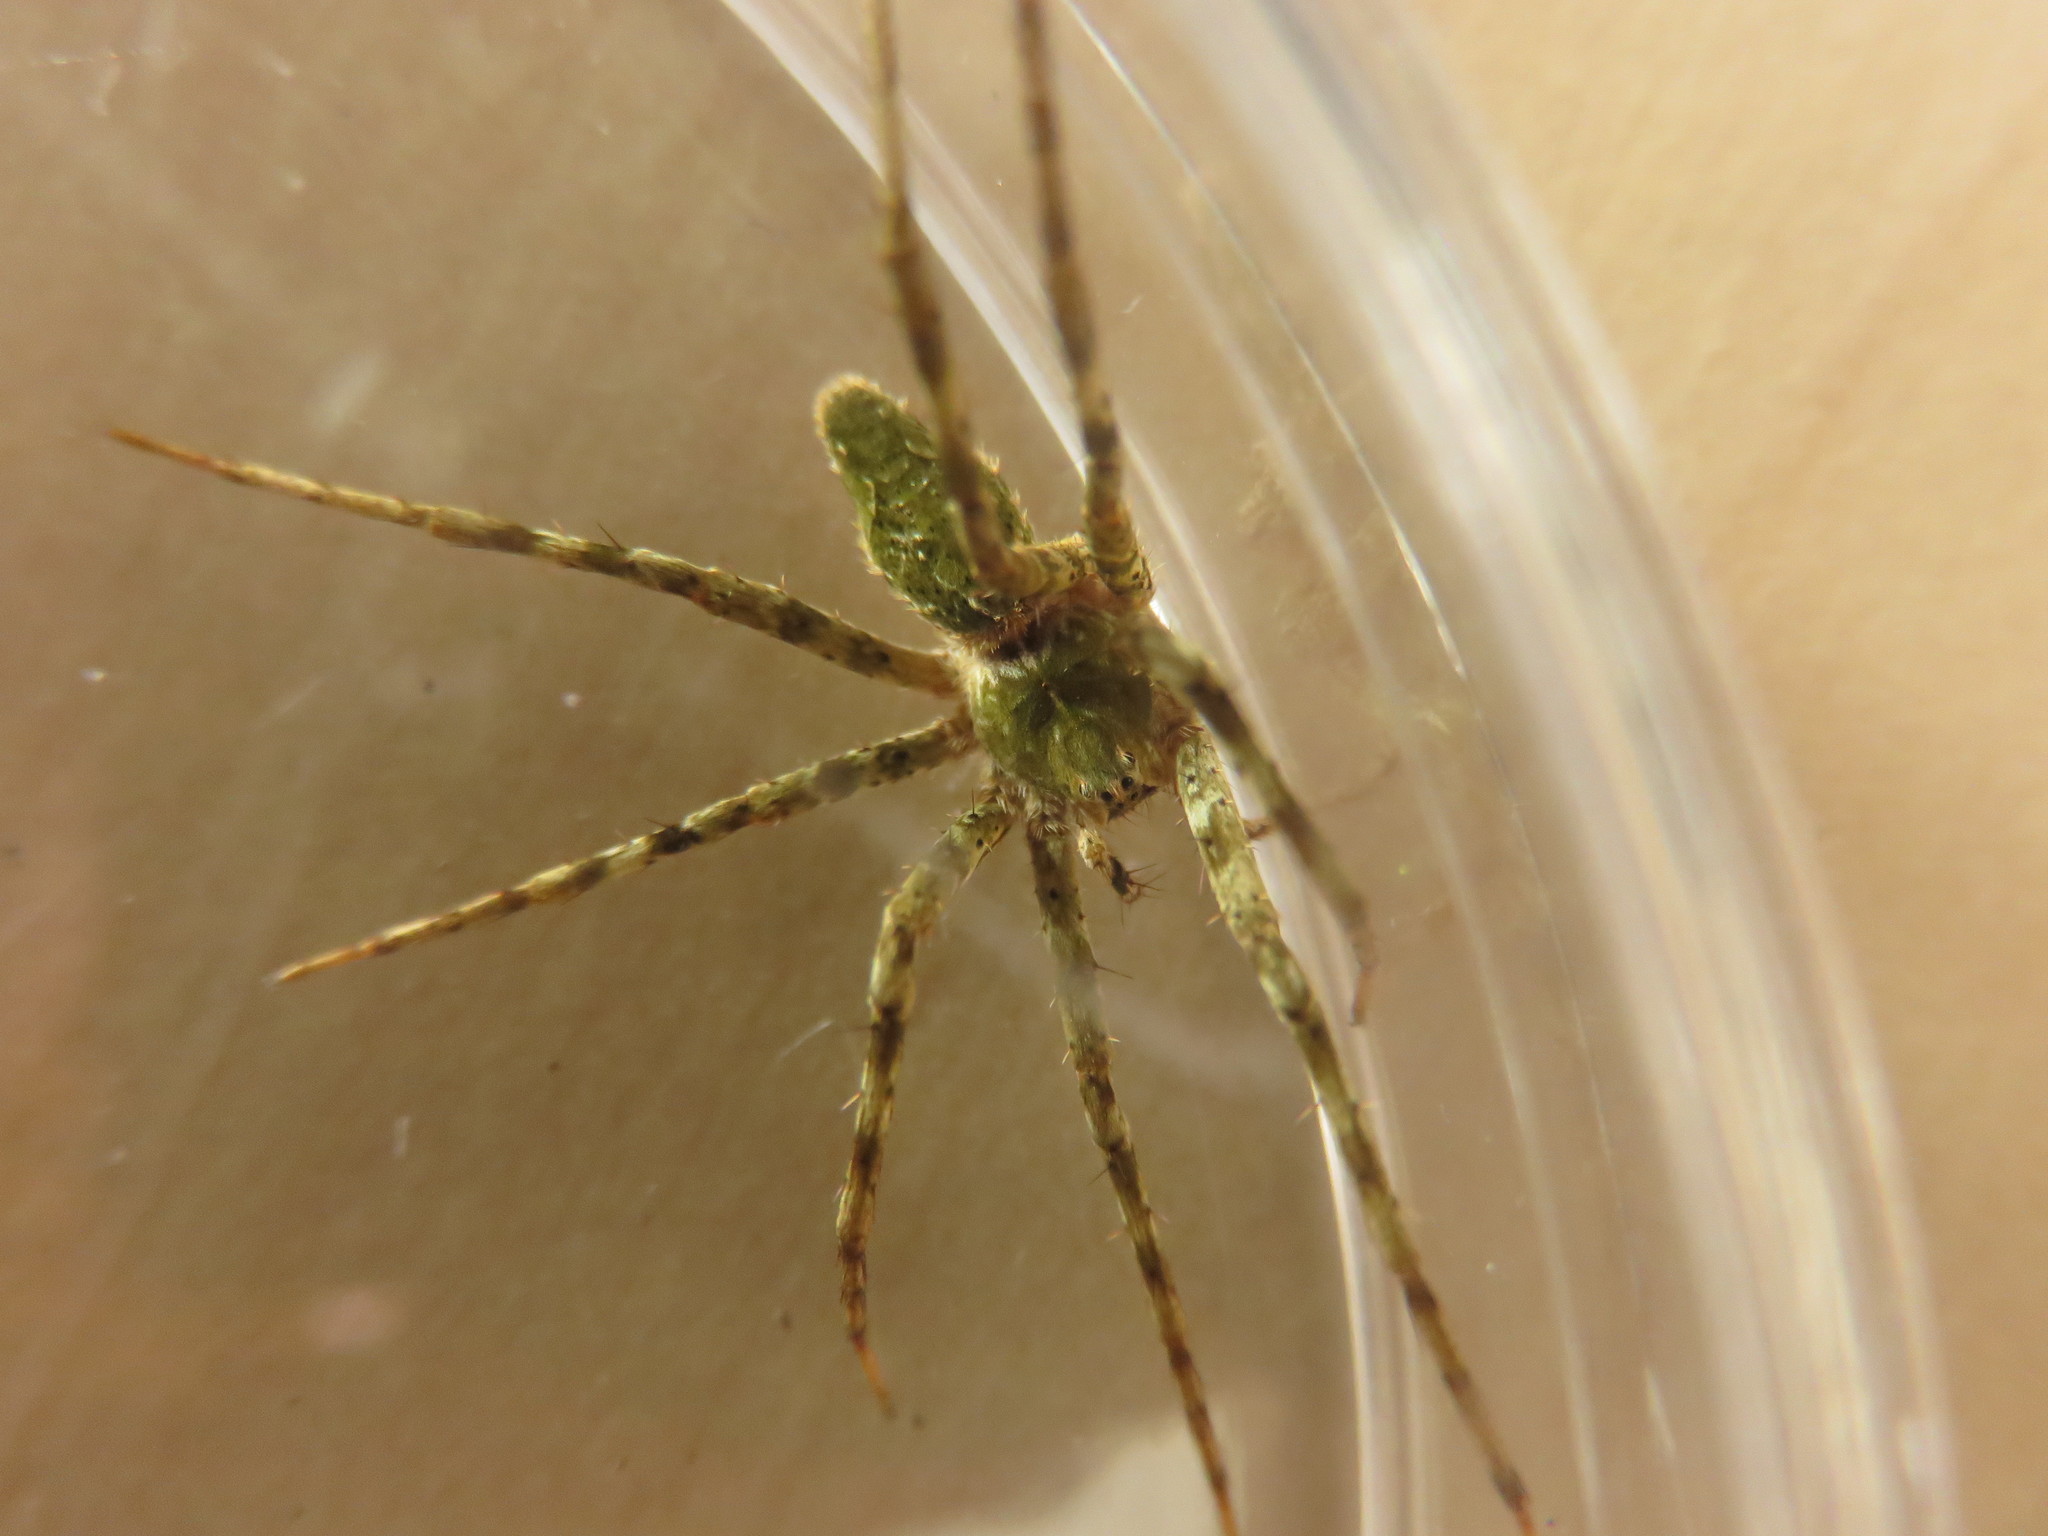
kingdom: Animalia
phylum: Arthropoda
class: Arachnida
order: Araneae
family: Pisauridae
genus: Cladycnis
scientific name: Cladycnis insignis
